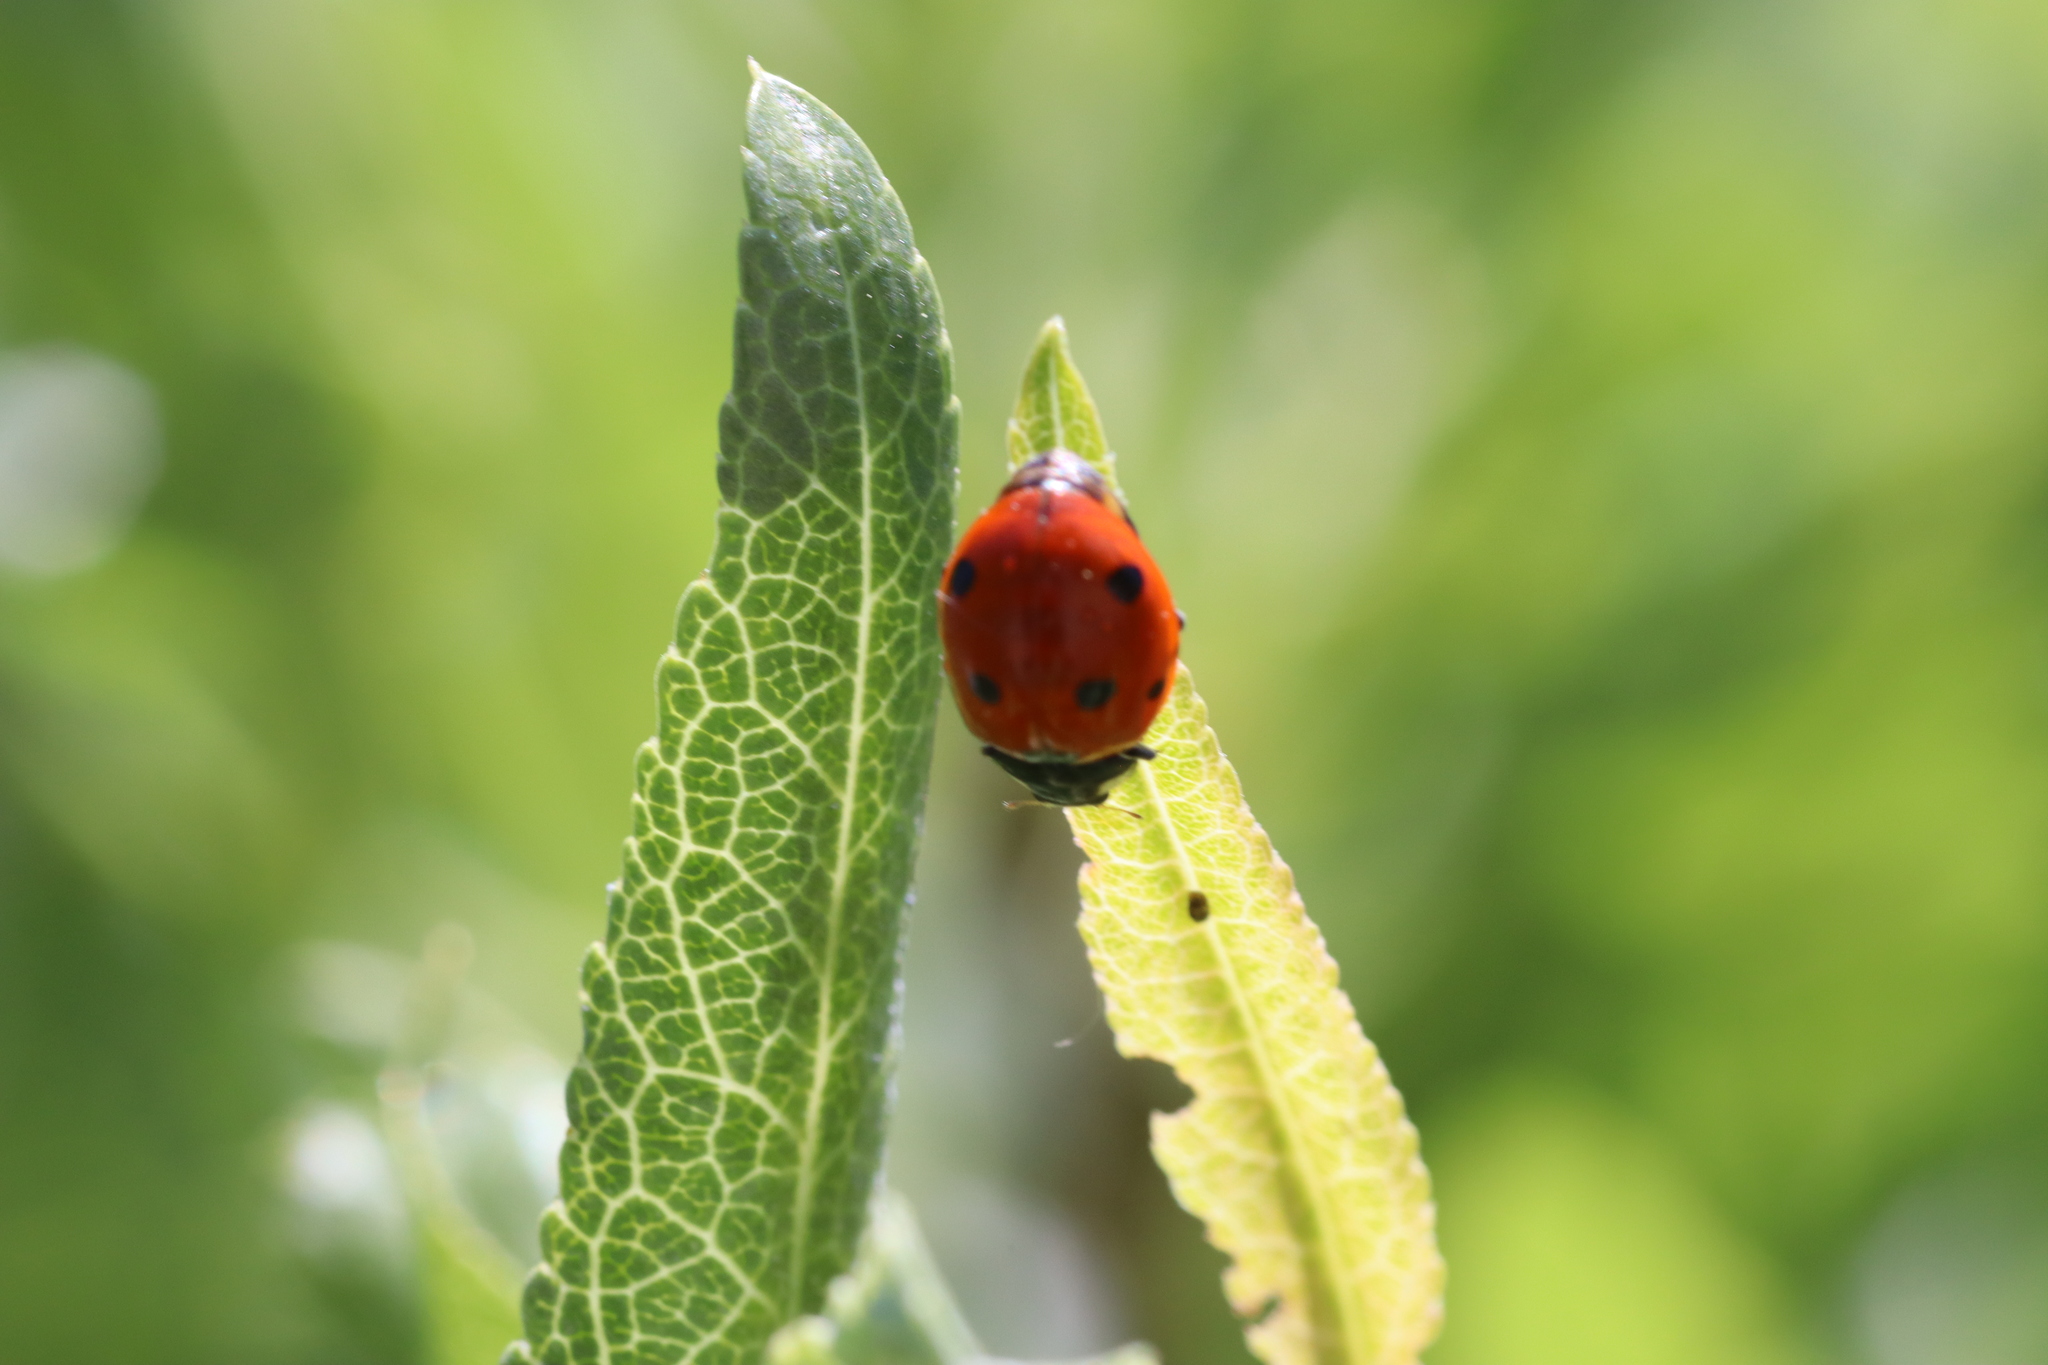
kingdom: Plantae
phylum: Tracheophyta
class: Magnoliopsida
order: Rosales
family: Rosaceae
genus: Prunus
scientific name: Prunus amygdalus
